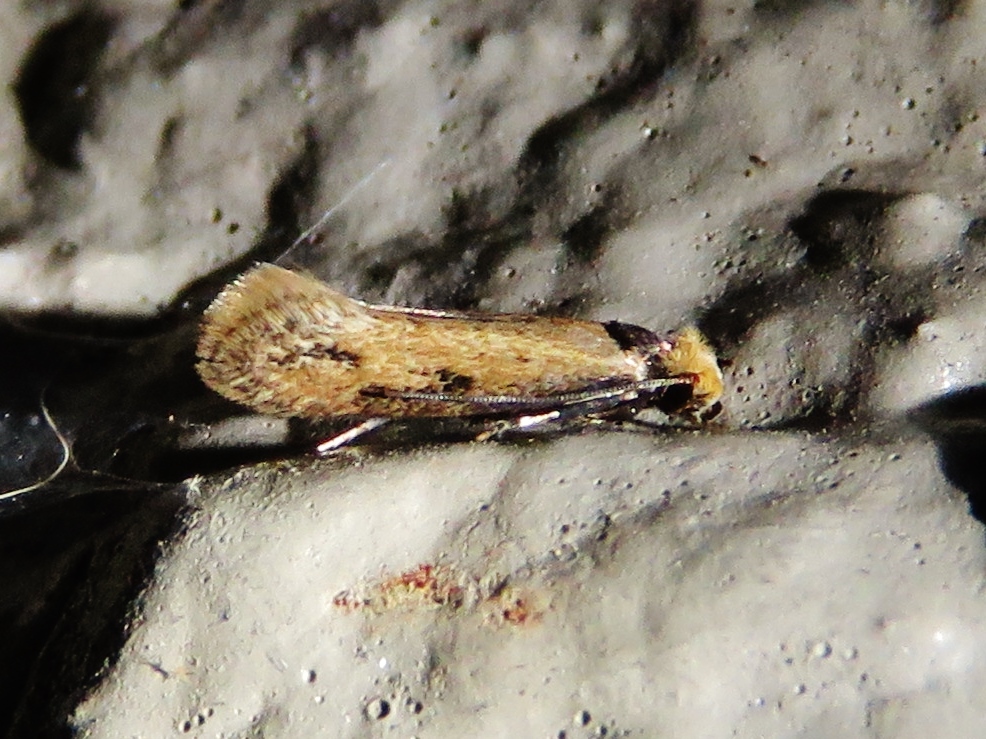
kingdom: Animalia
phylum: Arthropoda
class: Insecta
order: Lepidoptera
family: Meessiidae
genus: Homostinea
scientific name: Homostinea curviliniella
